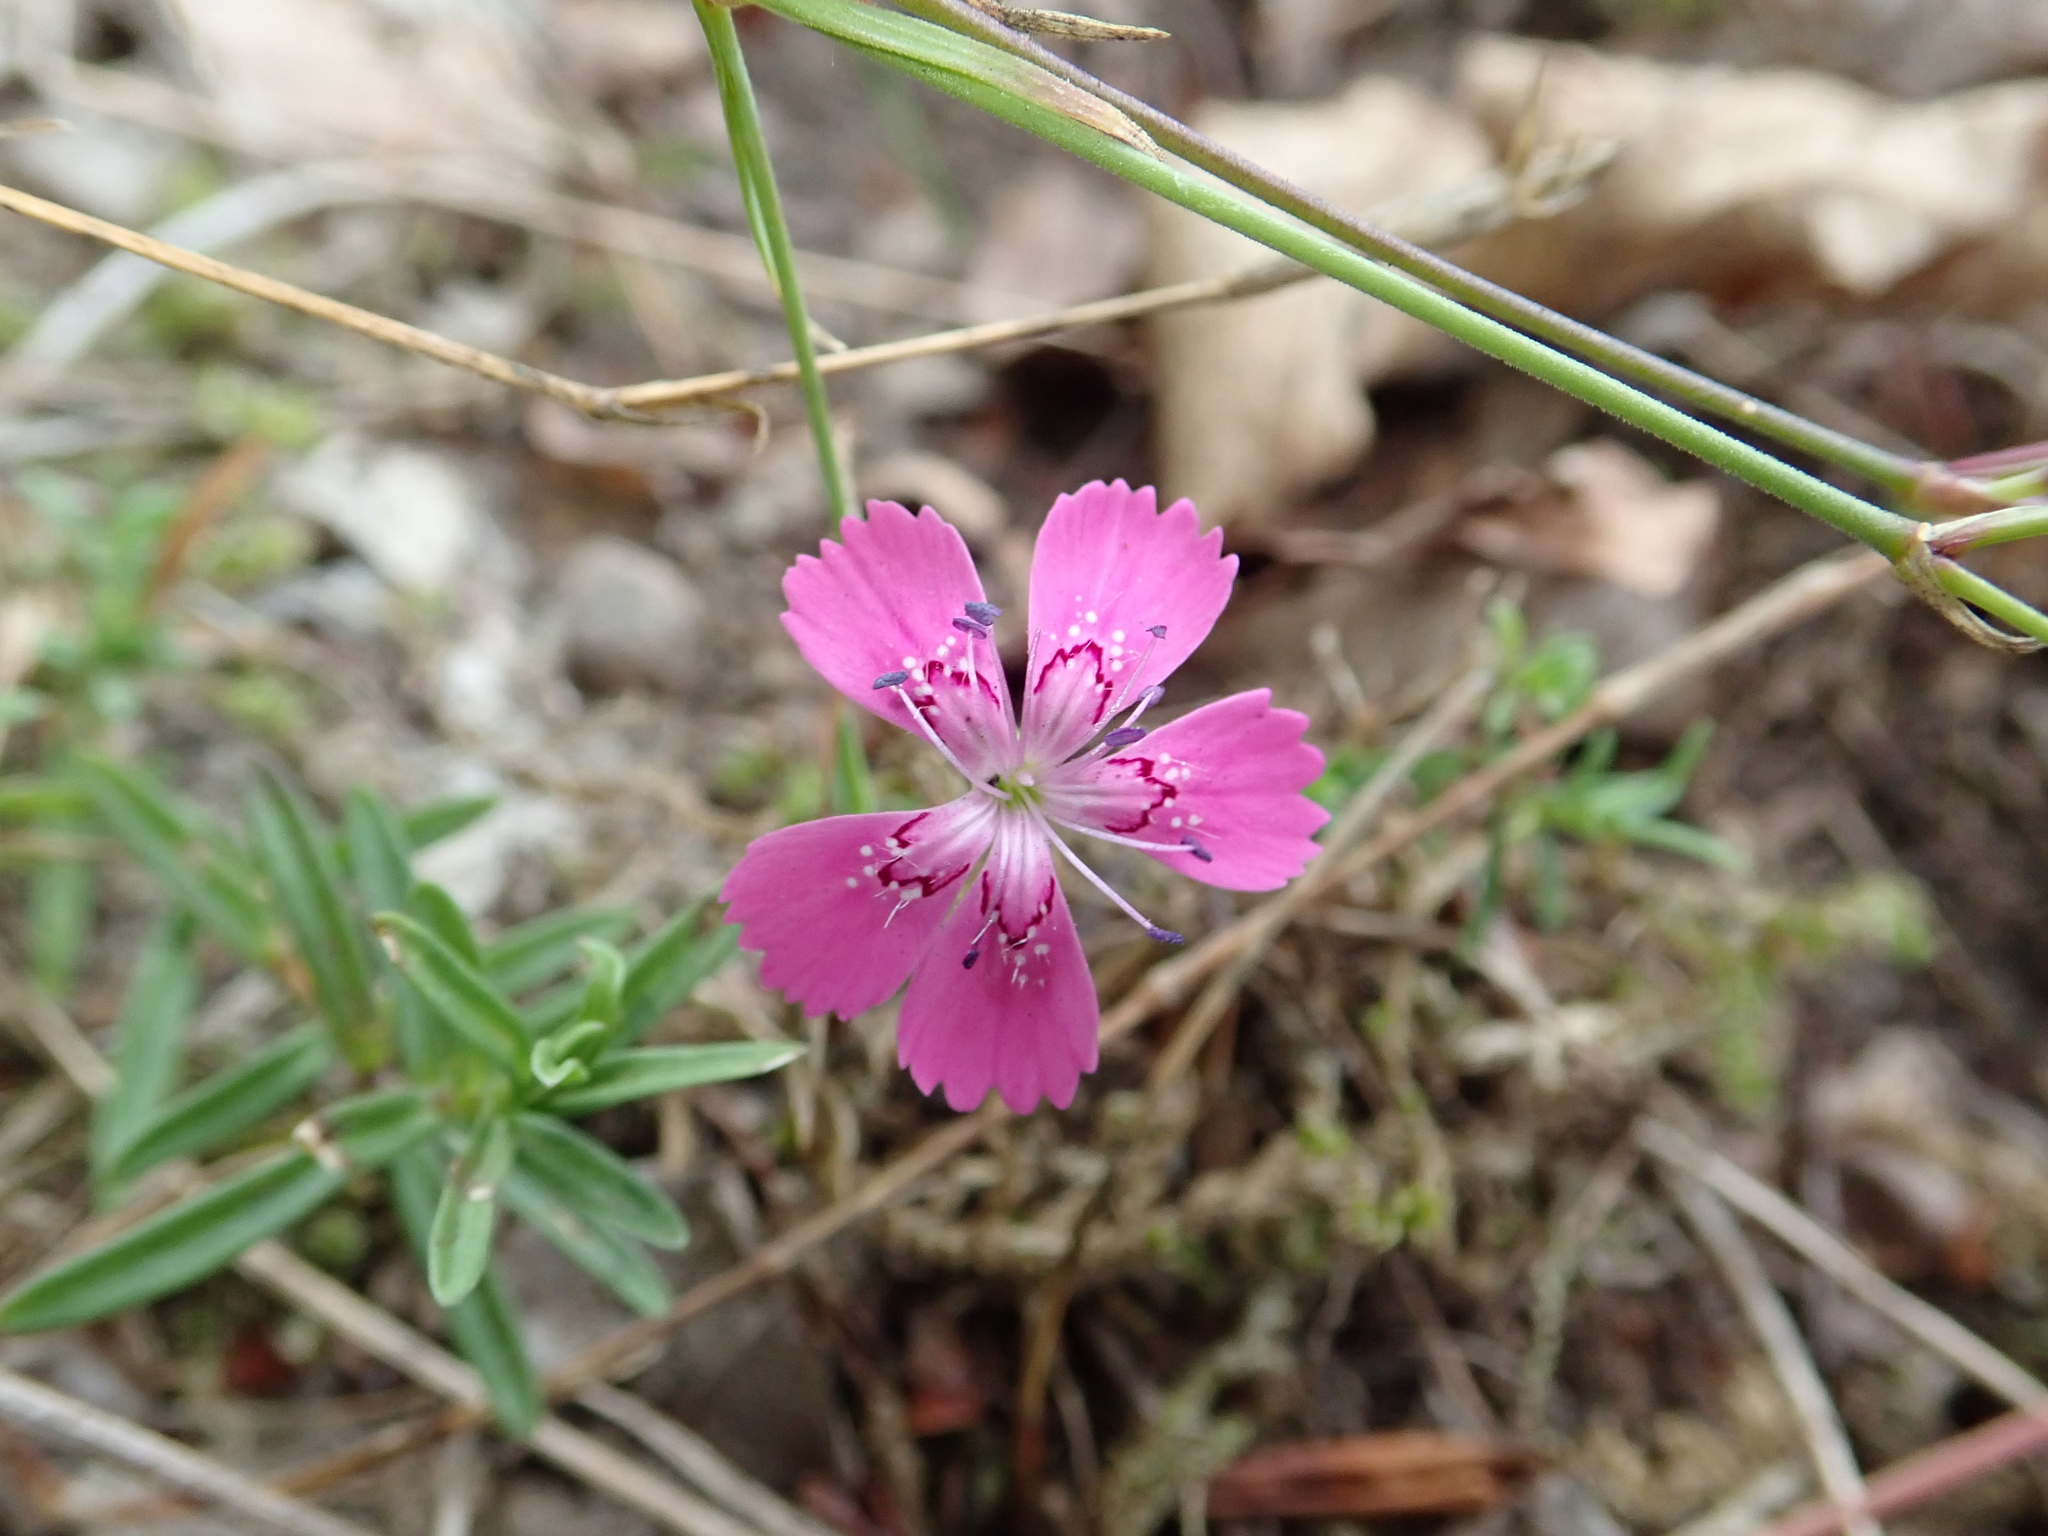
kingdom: Plantae
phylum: Tracheophyta
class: Magnoliopsida
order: Caryophyllales
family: Caryophyllaceae
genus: Dianthus
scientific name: Dianthus deltoides
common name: Maiden pink
